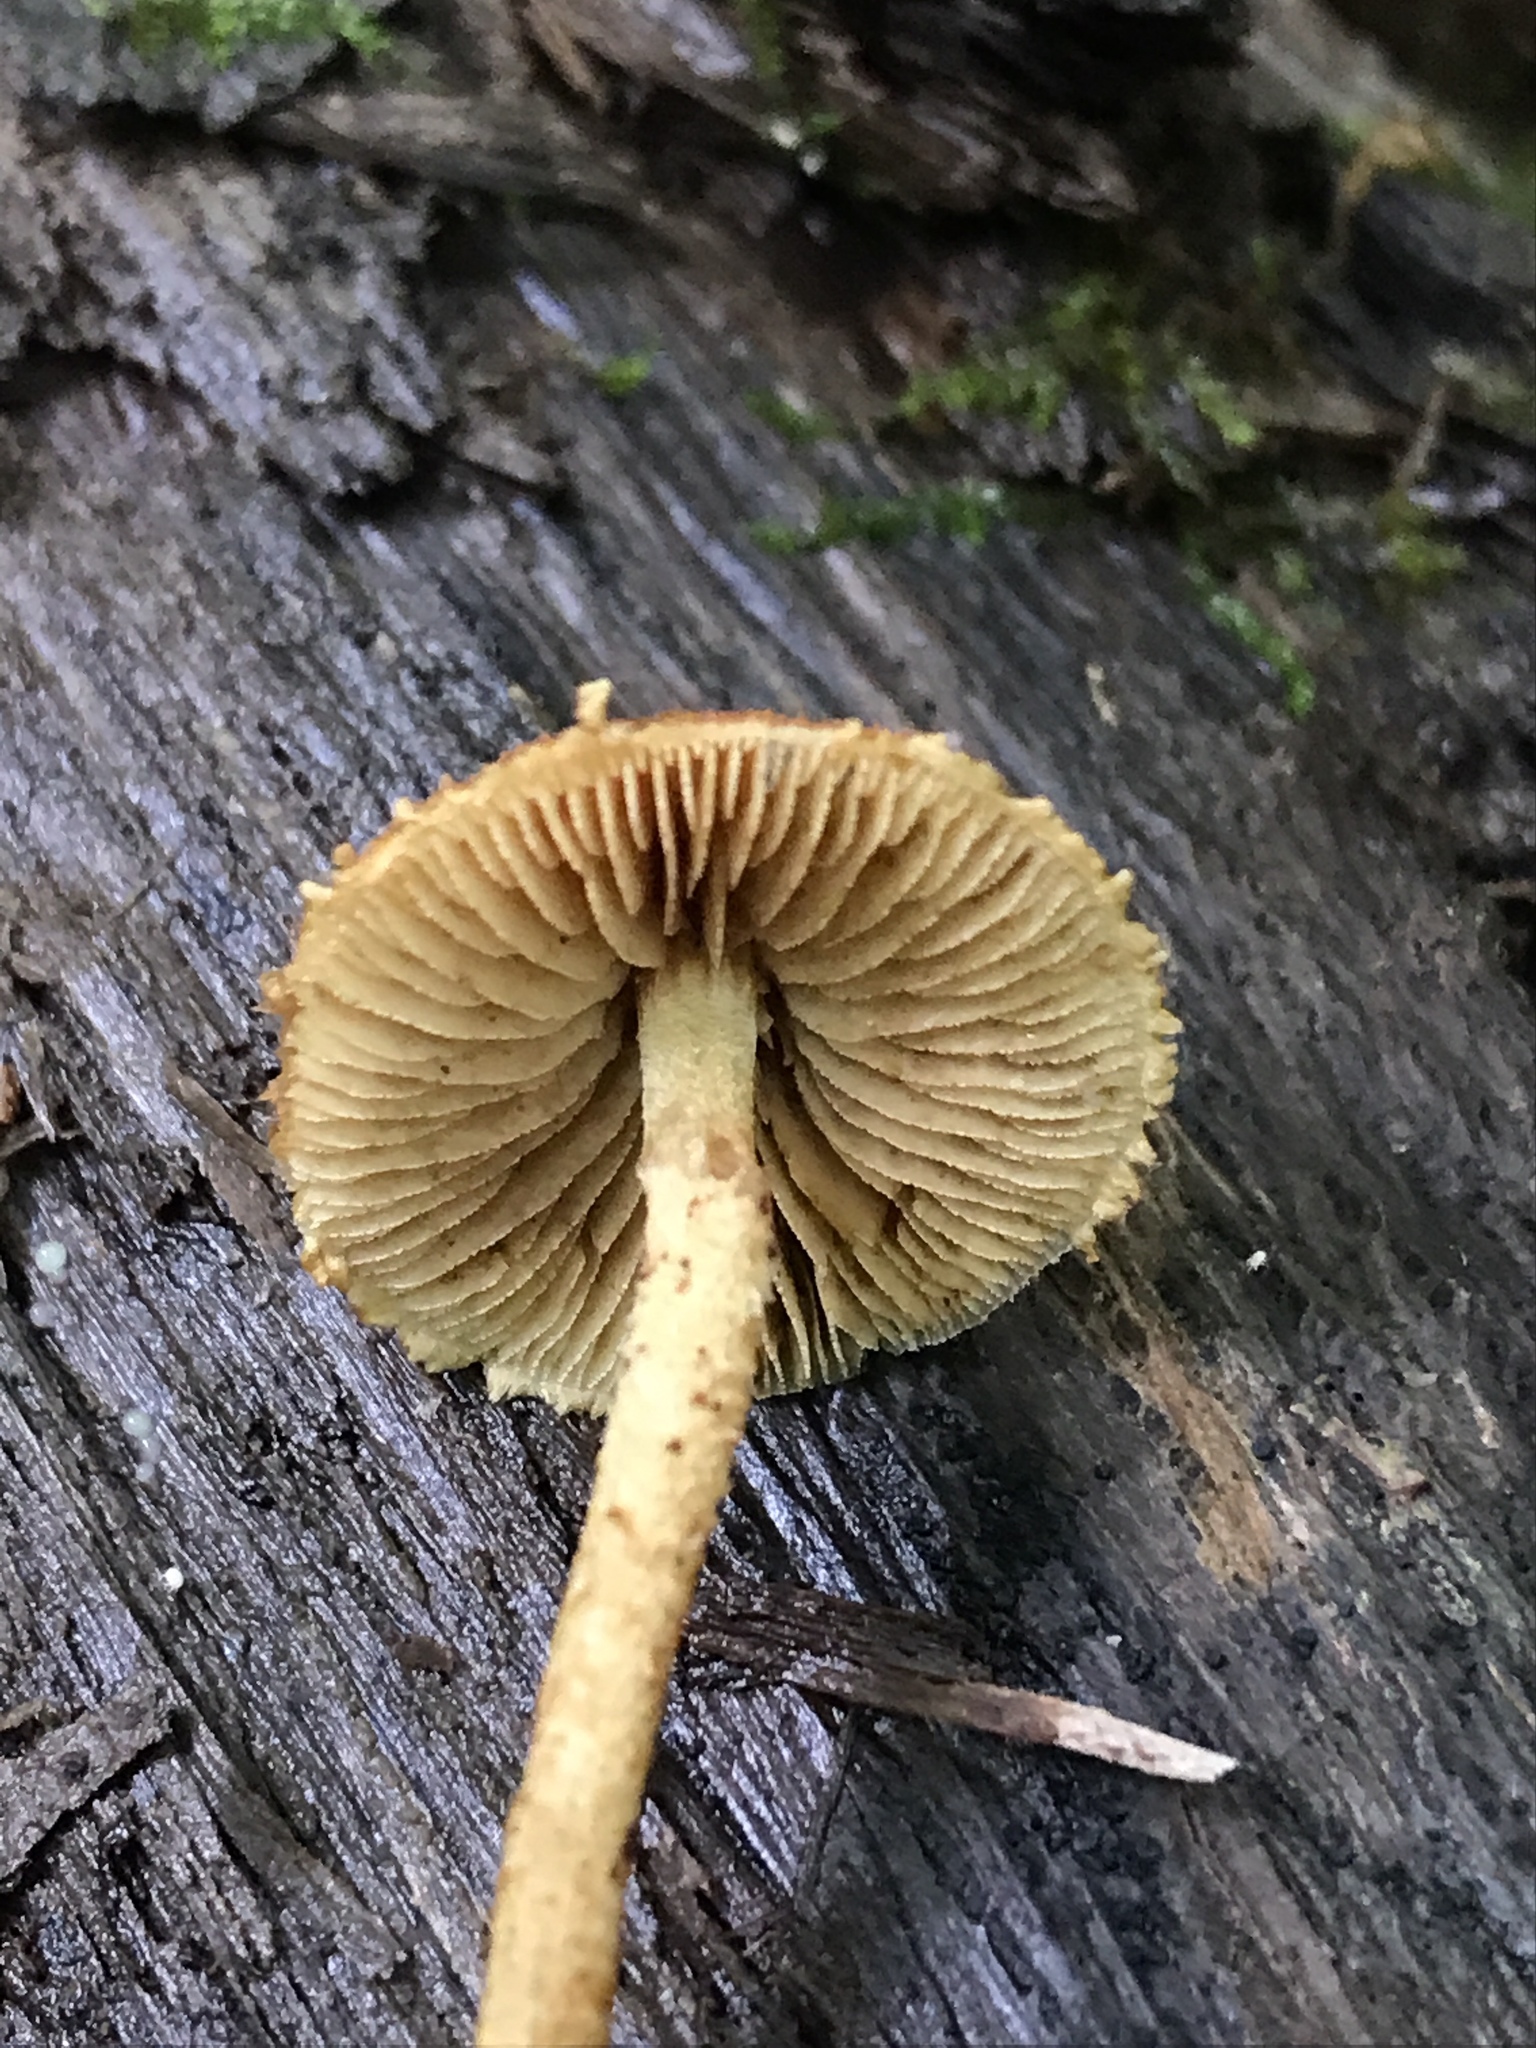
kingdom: Fungi
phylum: Basidiomycota
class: Agaricomycetes
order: Agaricales
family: Tubariaceae
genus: Flammulaster
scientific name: Flammulaster erinaceellus
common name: Powder-scale pholiota
